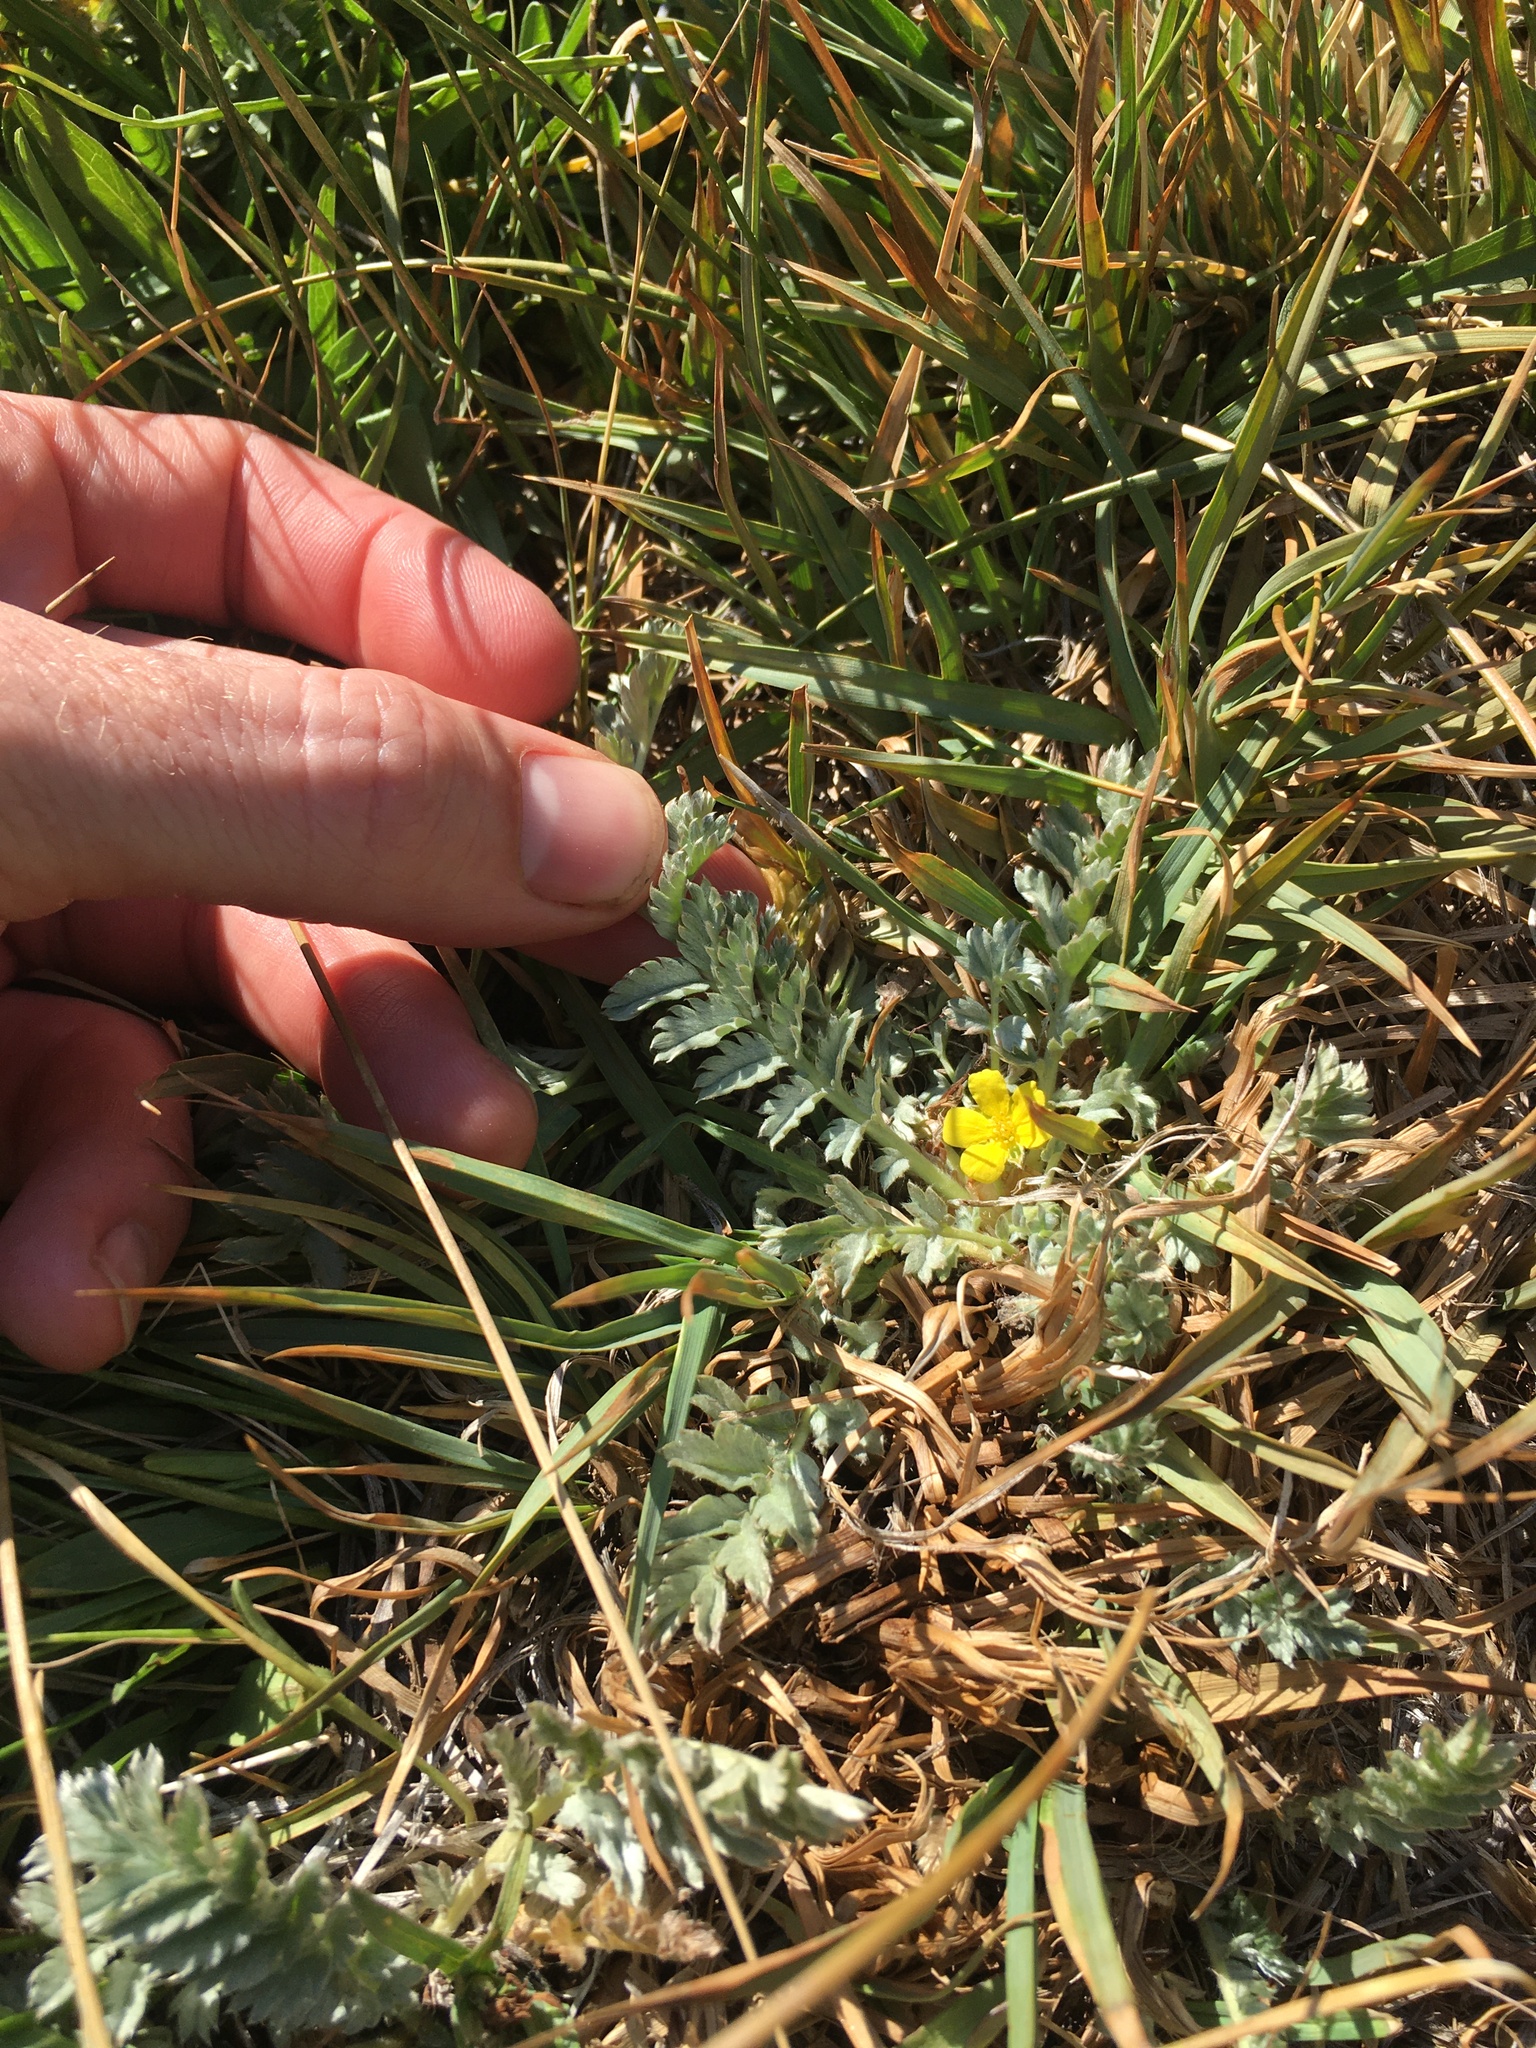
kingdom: Plantae
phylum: Tracheophyta
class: Magnoliopsida
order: Rosales
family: Rosaceae
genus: Argentina
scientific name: Argentina anserina
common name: Common silverweed
